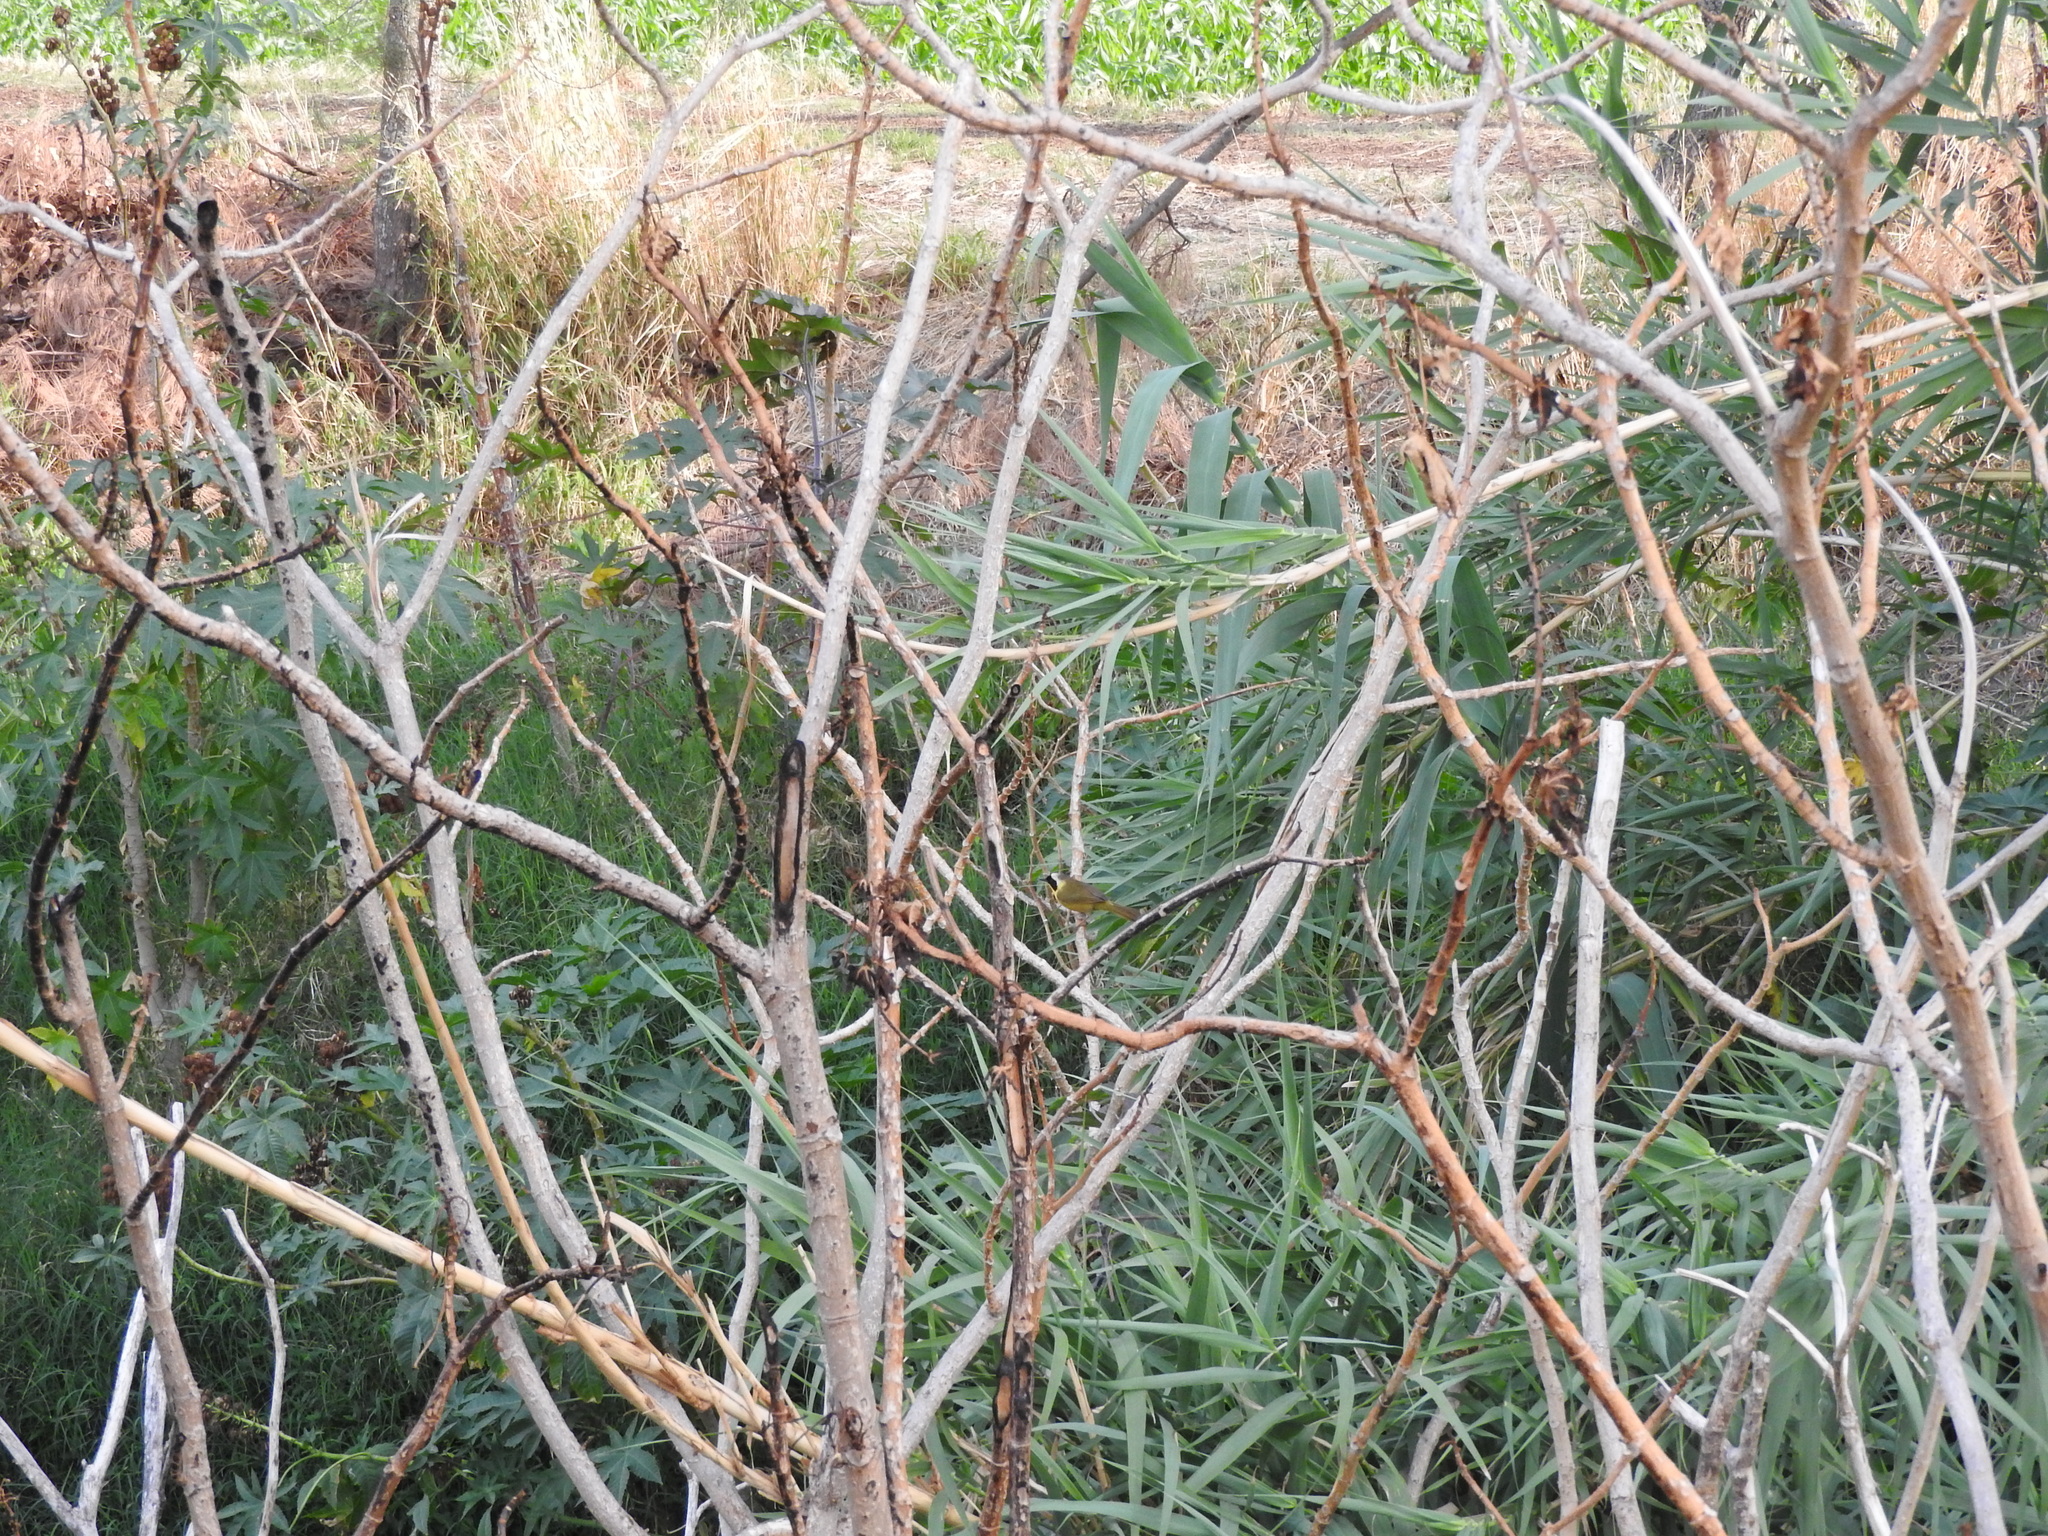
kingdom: Animalia
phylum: Chordata
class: Aves
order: Passeriformes
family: Parulidae
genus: Geothlypis
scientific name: Geothlypis trichas
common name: Common yellowthroat
